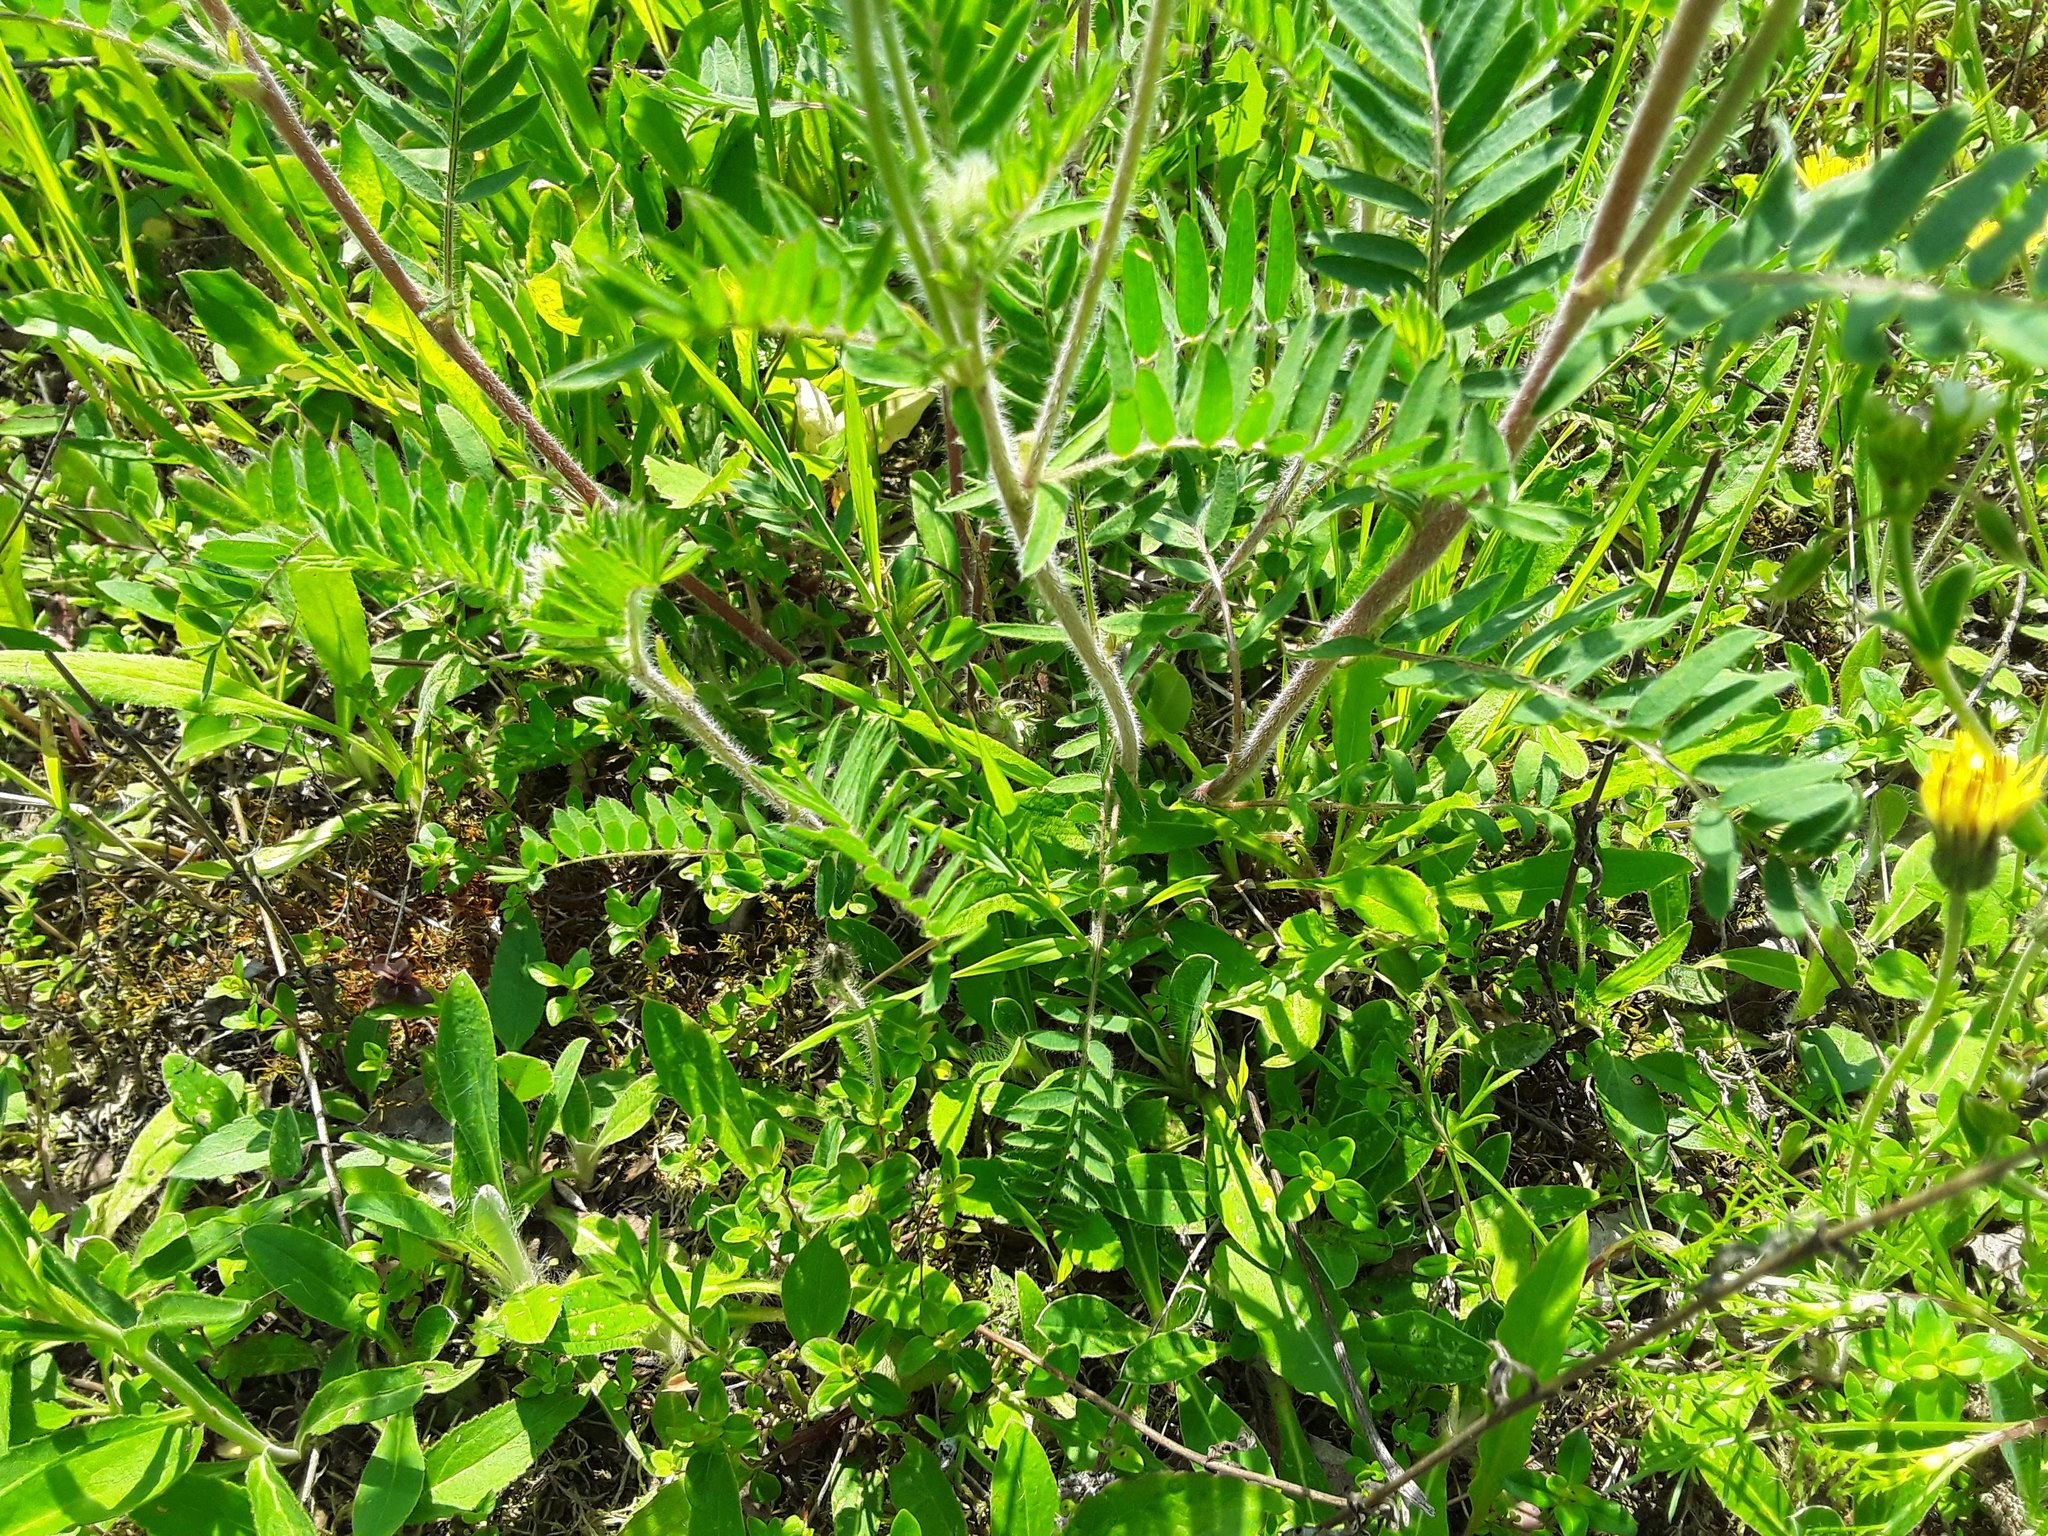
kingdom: Plantae
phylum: Tracheophyta
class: Magnoliopsida
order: Fabales
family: Fabaceae
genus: Oxytropis
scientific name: Oxytropis pilosa
